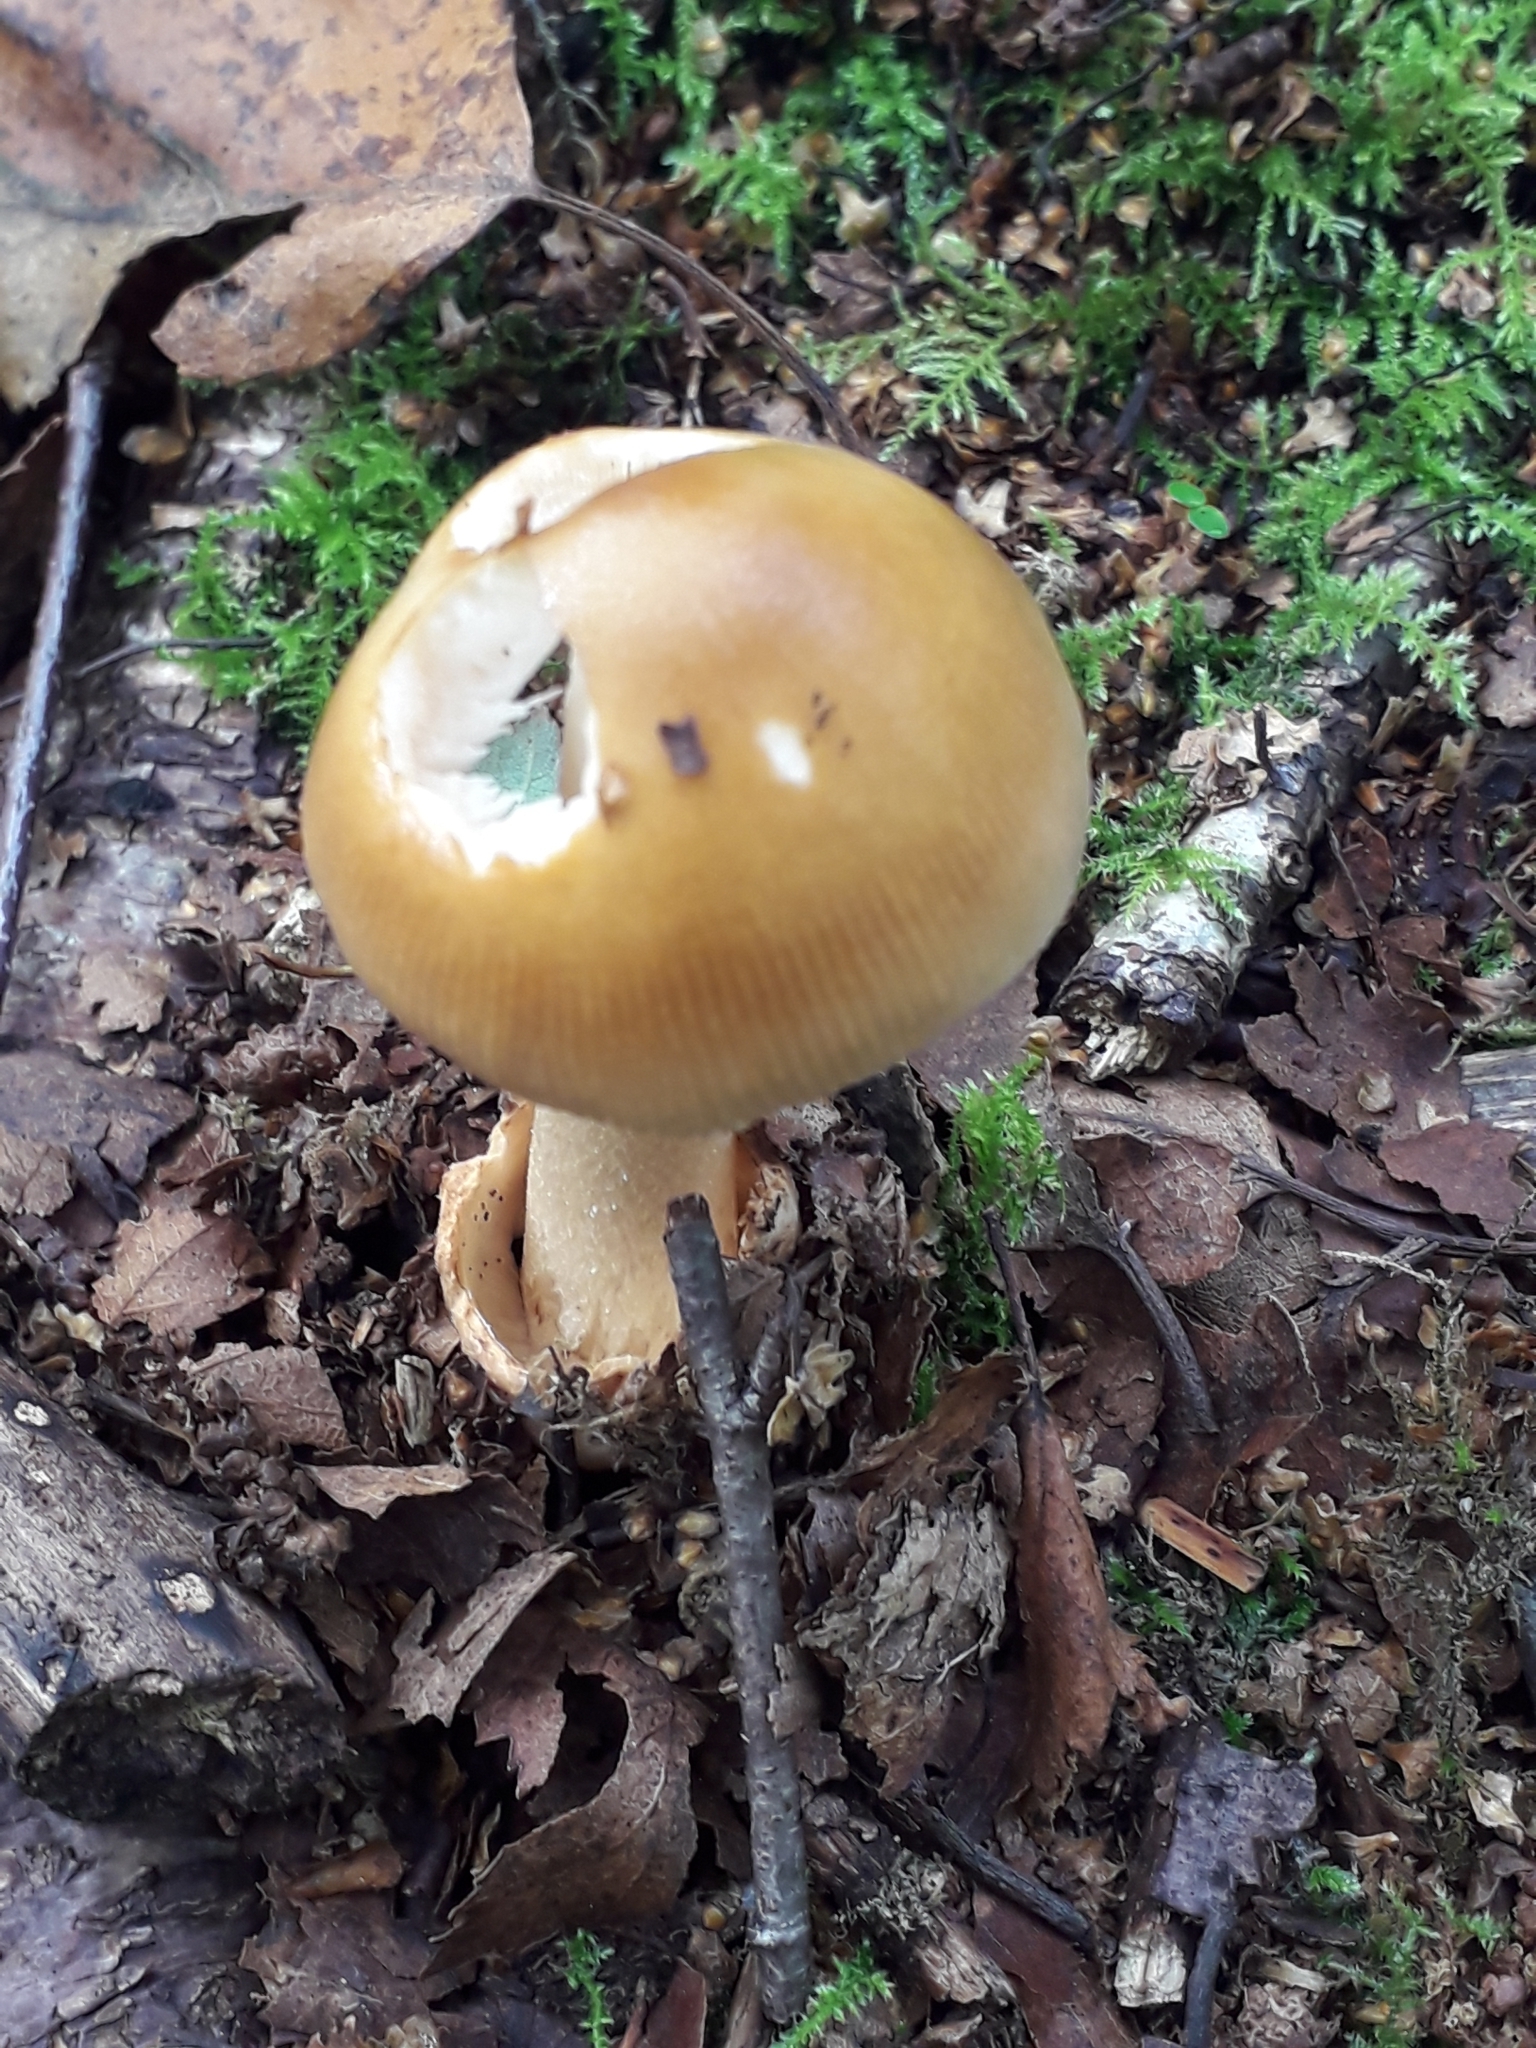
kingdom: Fungi
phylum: Basidiomycota
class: Agaricomycetes
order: Agaricales
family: Amanitaceae
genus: Amanita
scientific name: Amanita fulva
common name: Tawny grisette
